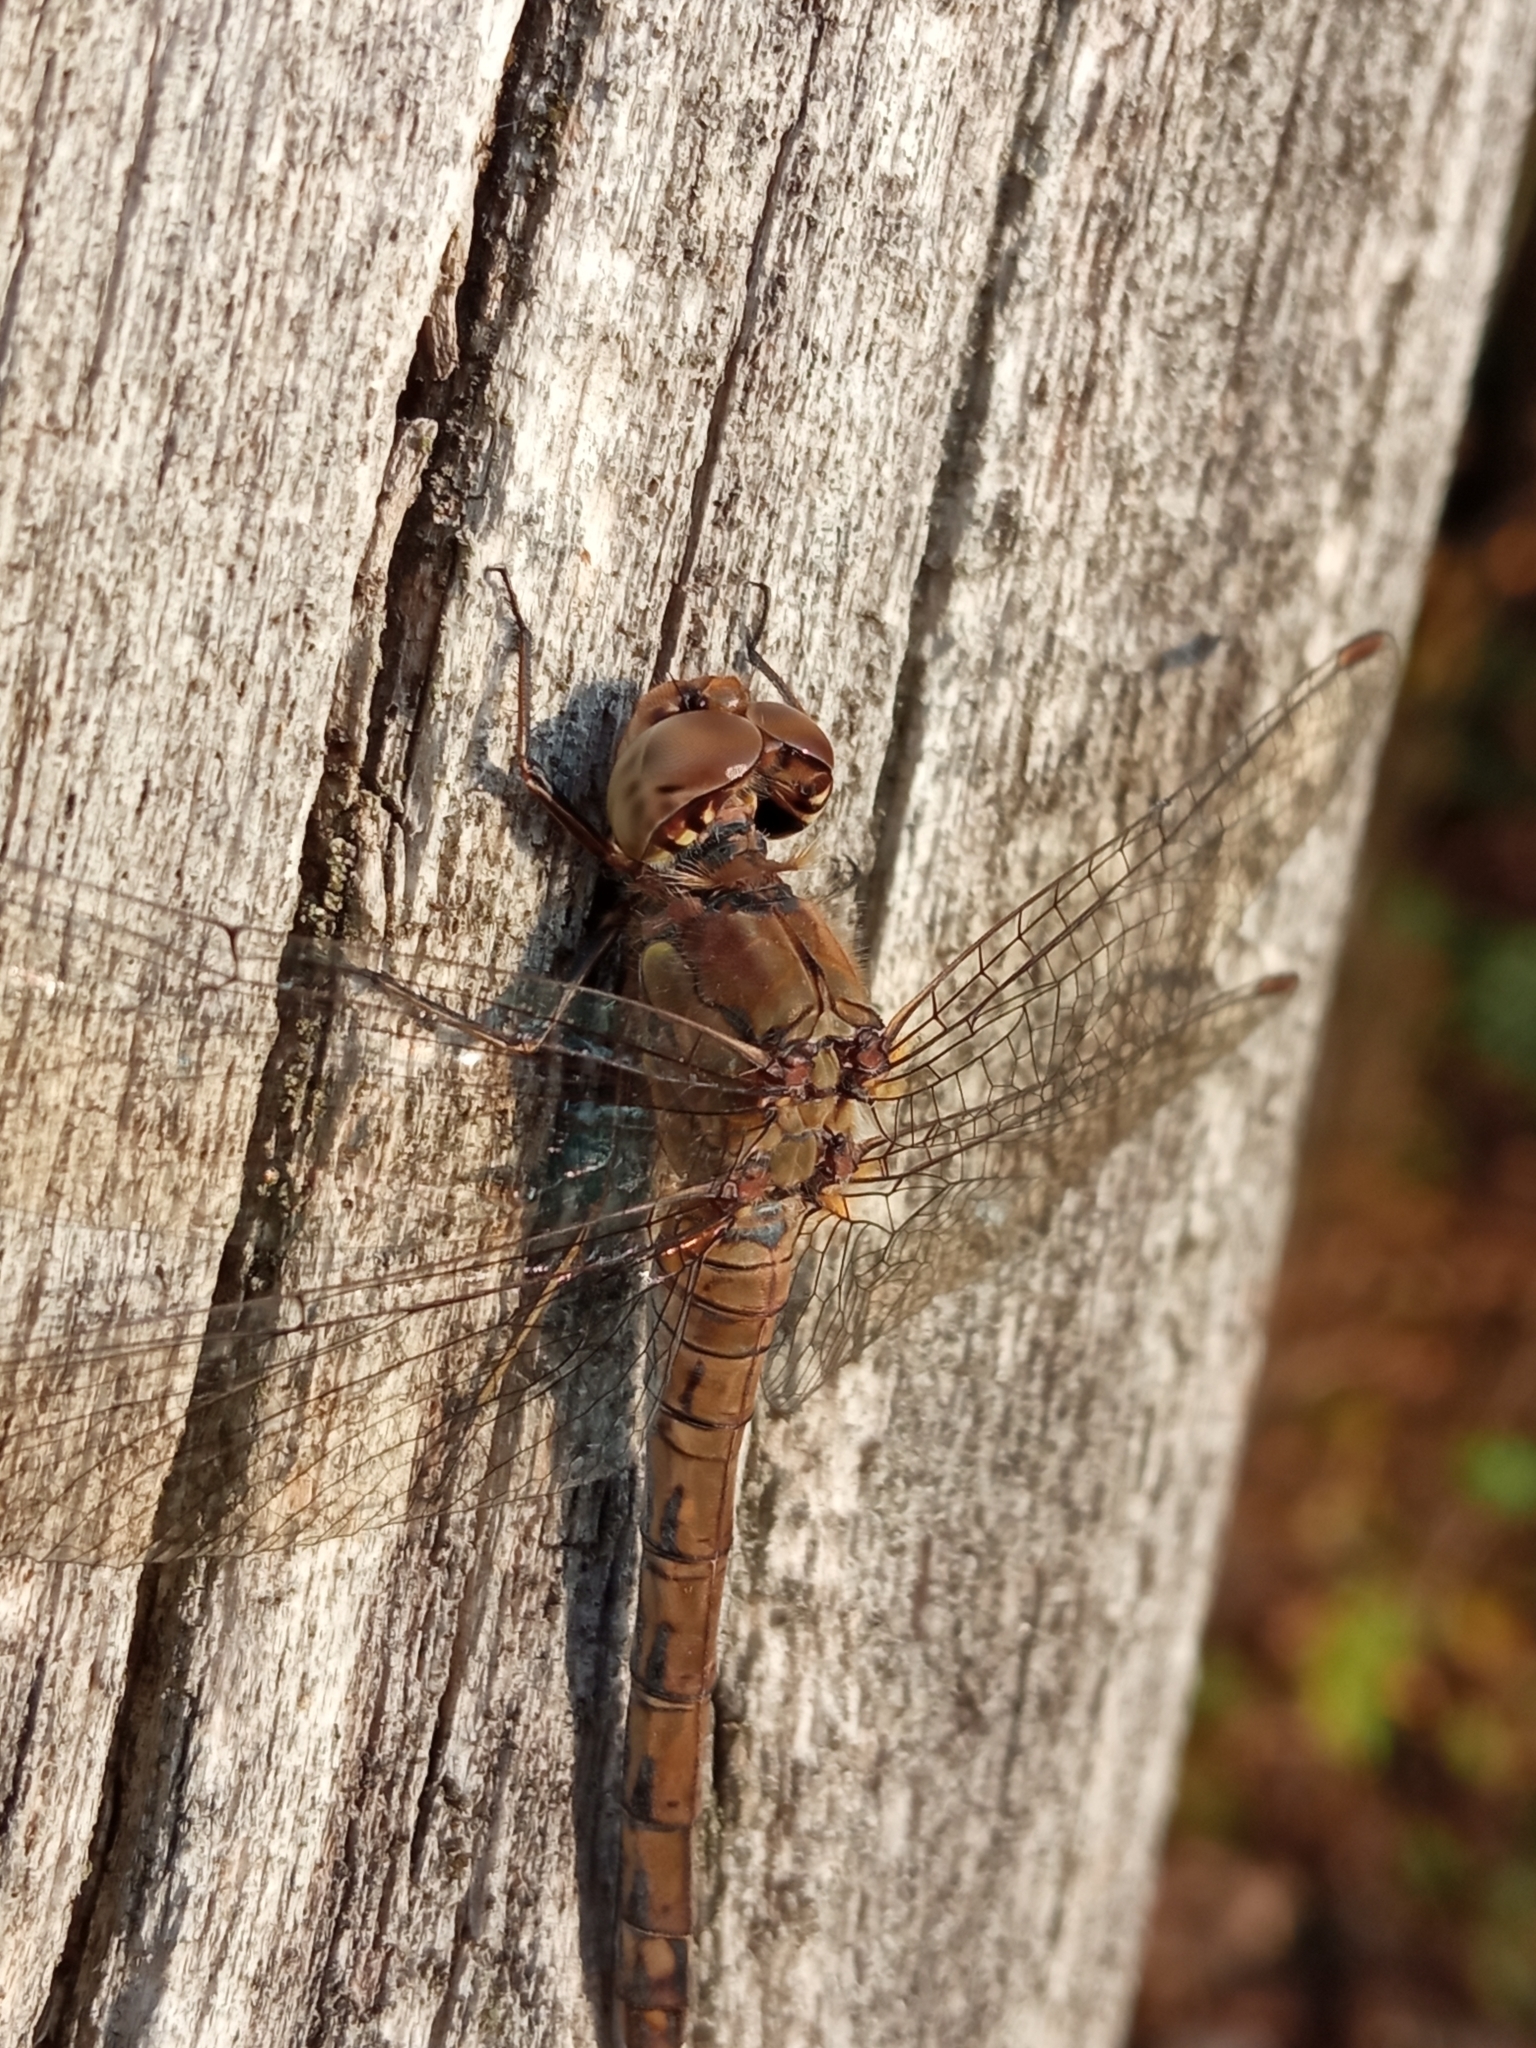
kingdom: Animalia
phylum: Arthropoda
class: Insecta
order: Odonata
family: Libellulidae
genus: Sympetrum
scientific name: Sympetrum striolatum
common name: Common darter
